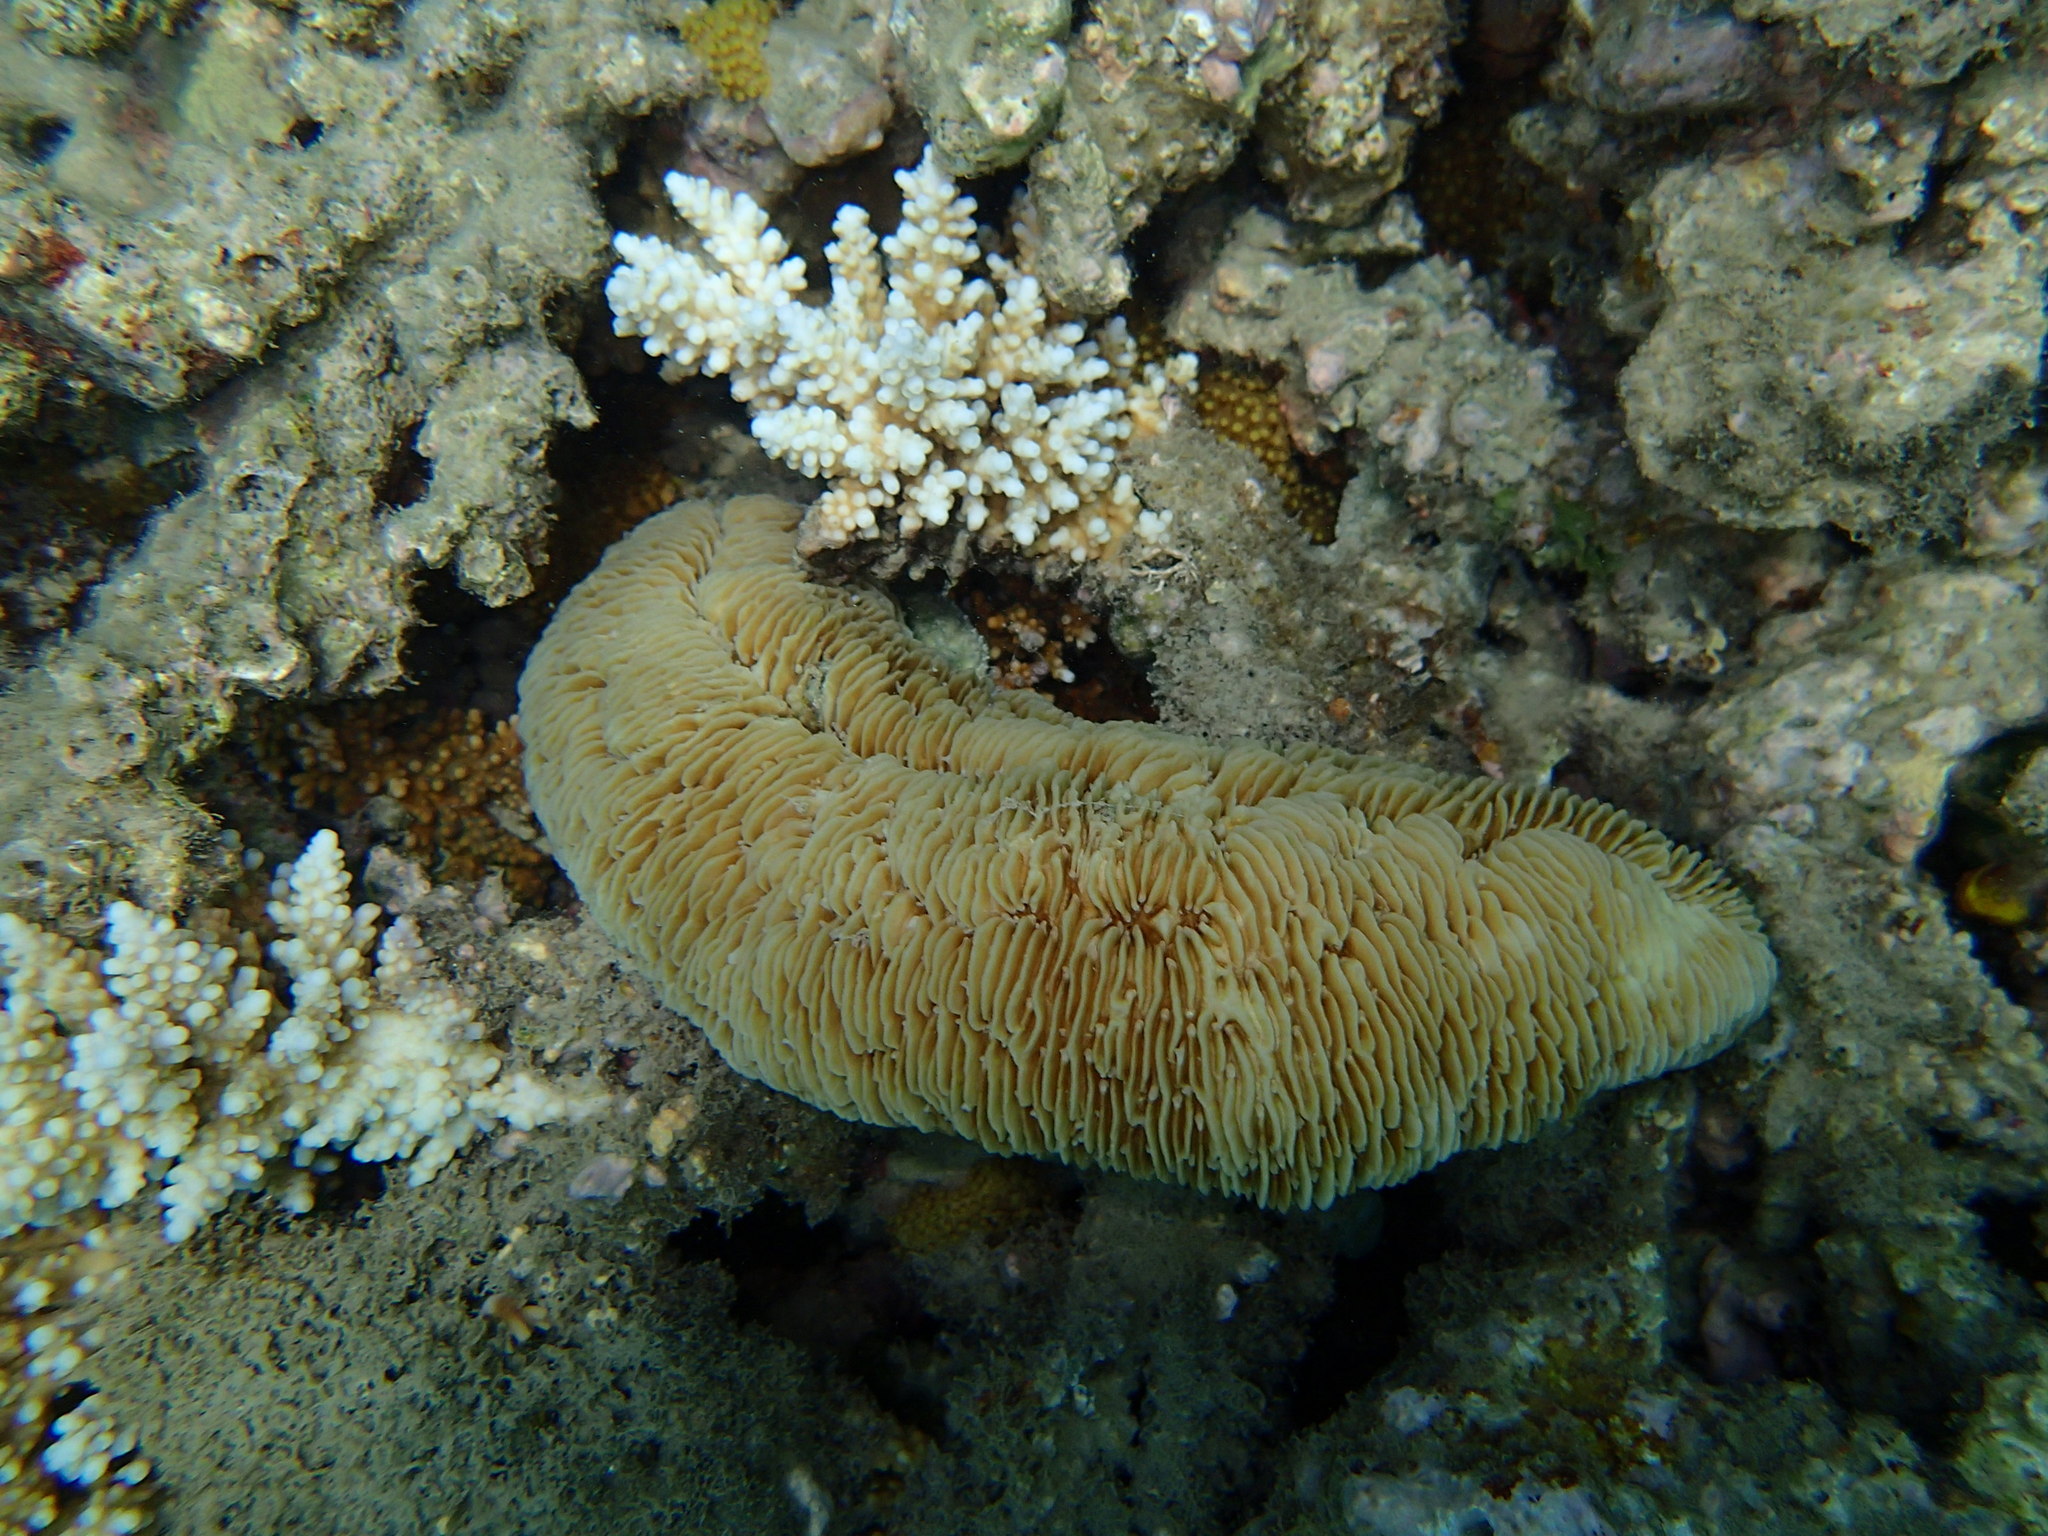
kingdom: Animalia
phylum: Cnidaria
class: Anthozoa
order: Scleractinia
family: Fungiidae
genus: Herpolitha
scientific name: Herpolitha limax
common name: Striate boomerang coral
